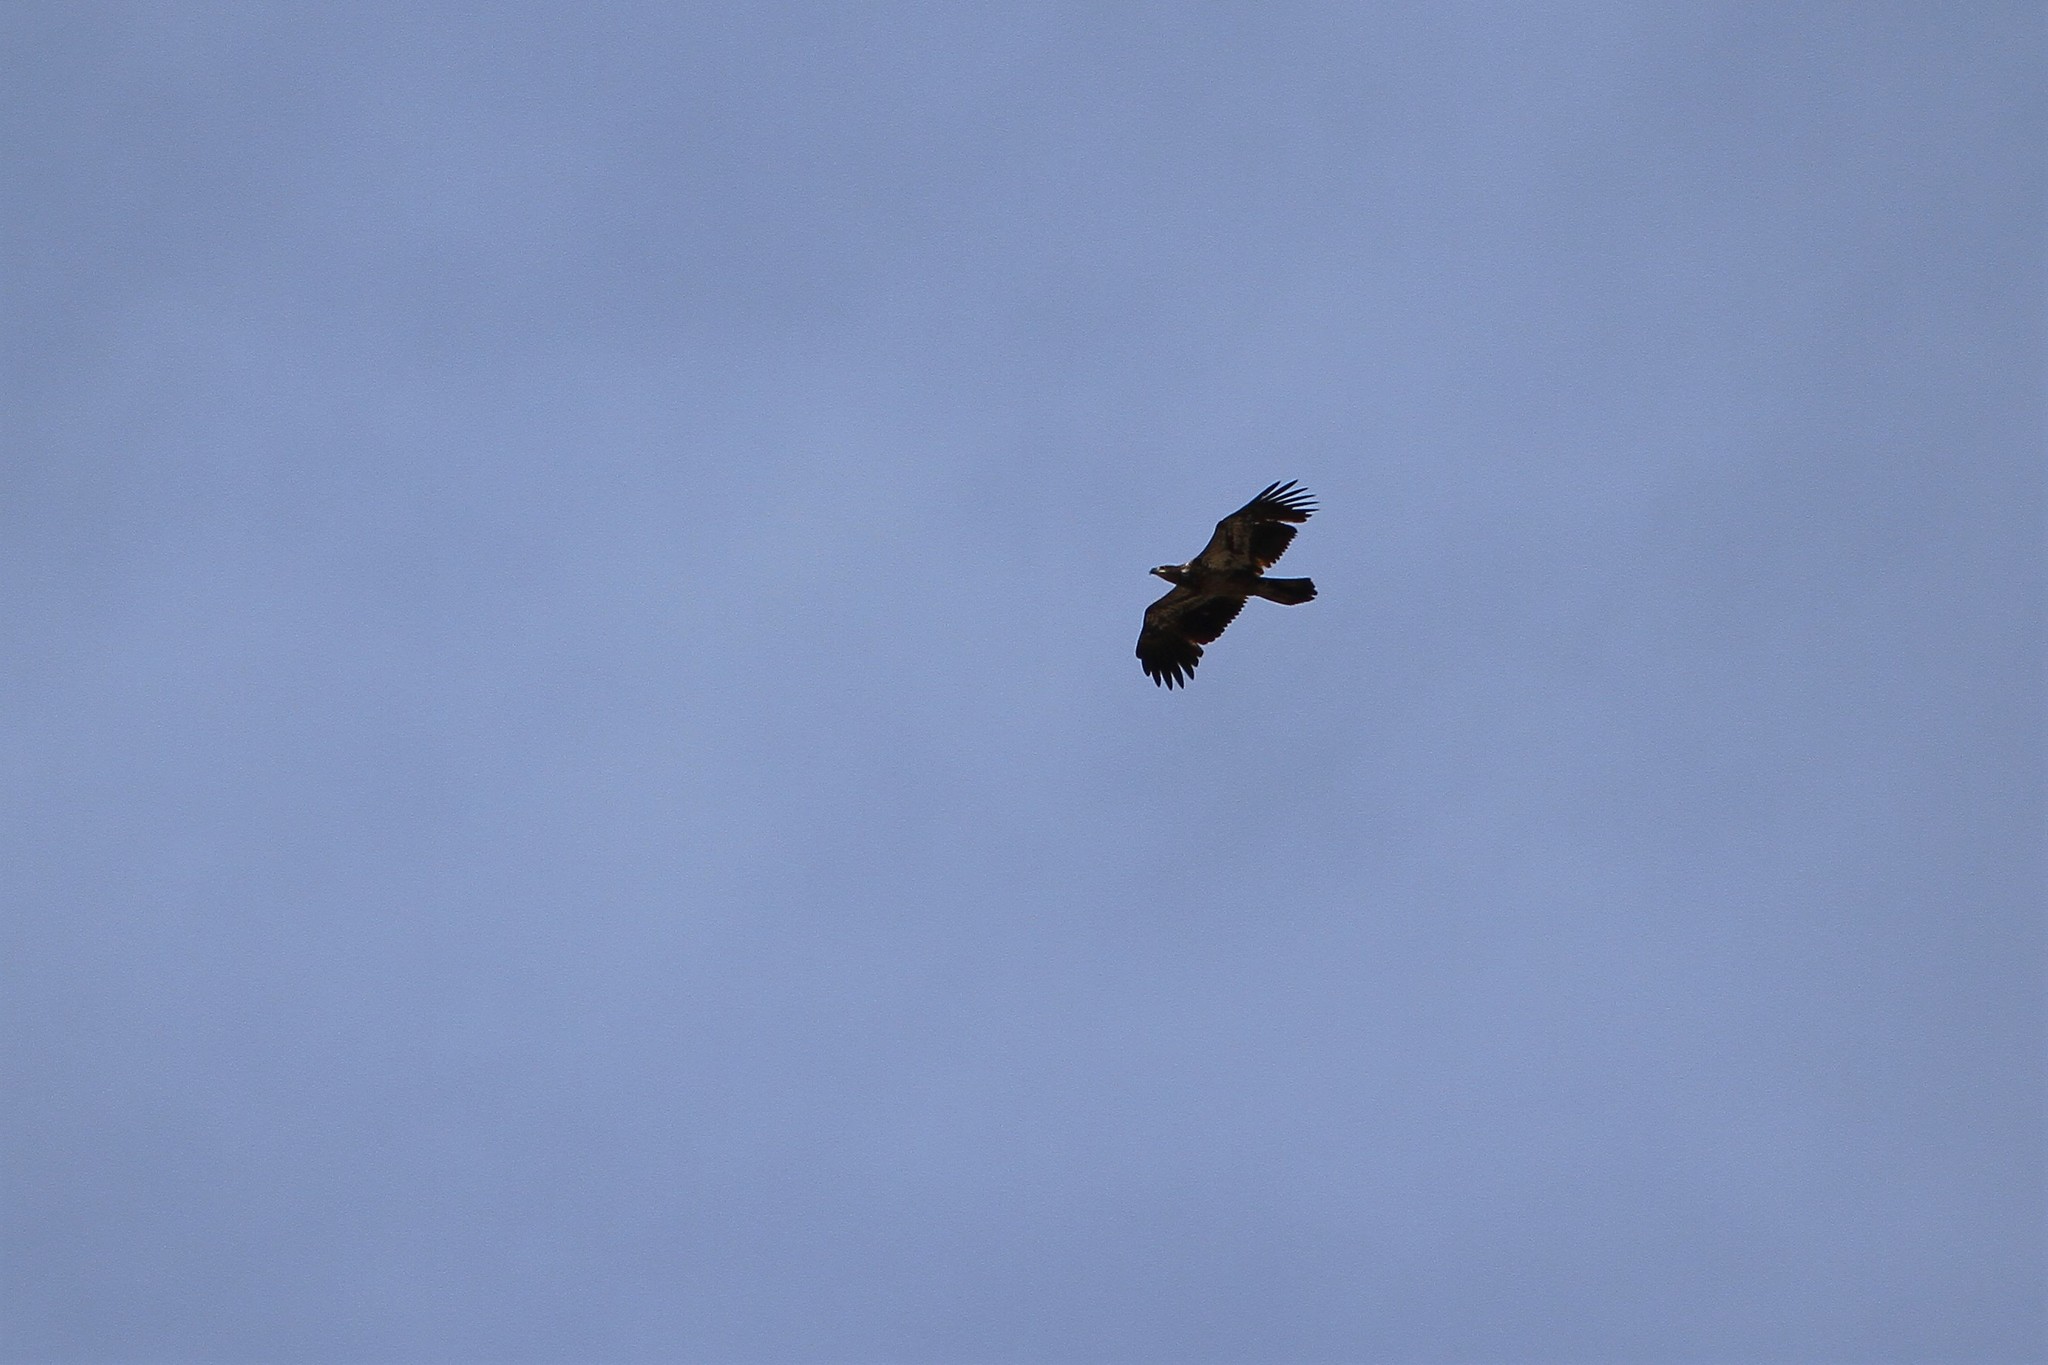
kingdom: Animalia
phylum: Chordata
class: Aves
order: Accipitriformes
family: Accipitridae
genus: Haliaeetus
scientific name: Haliaeetus leucocephalus
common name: Bald eagle
